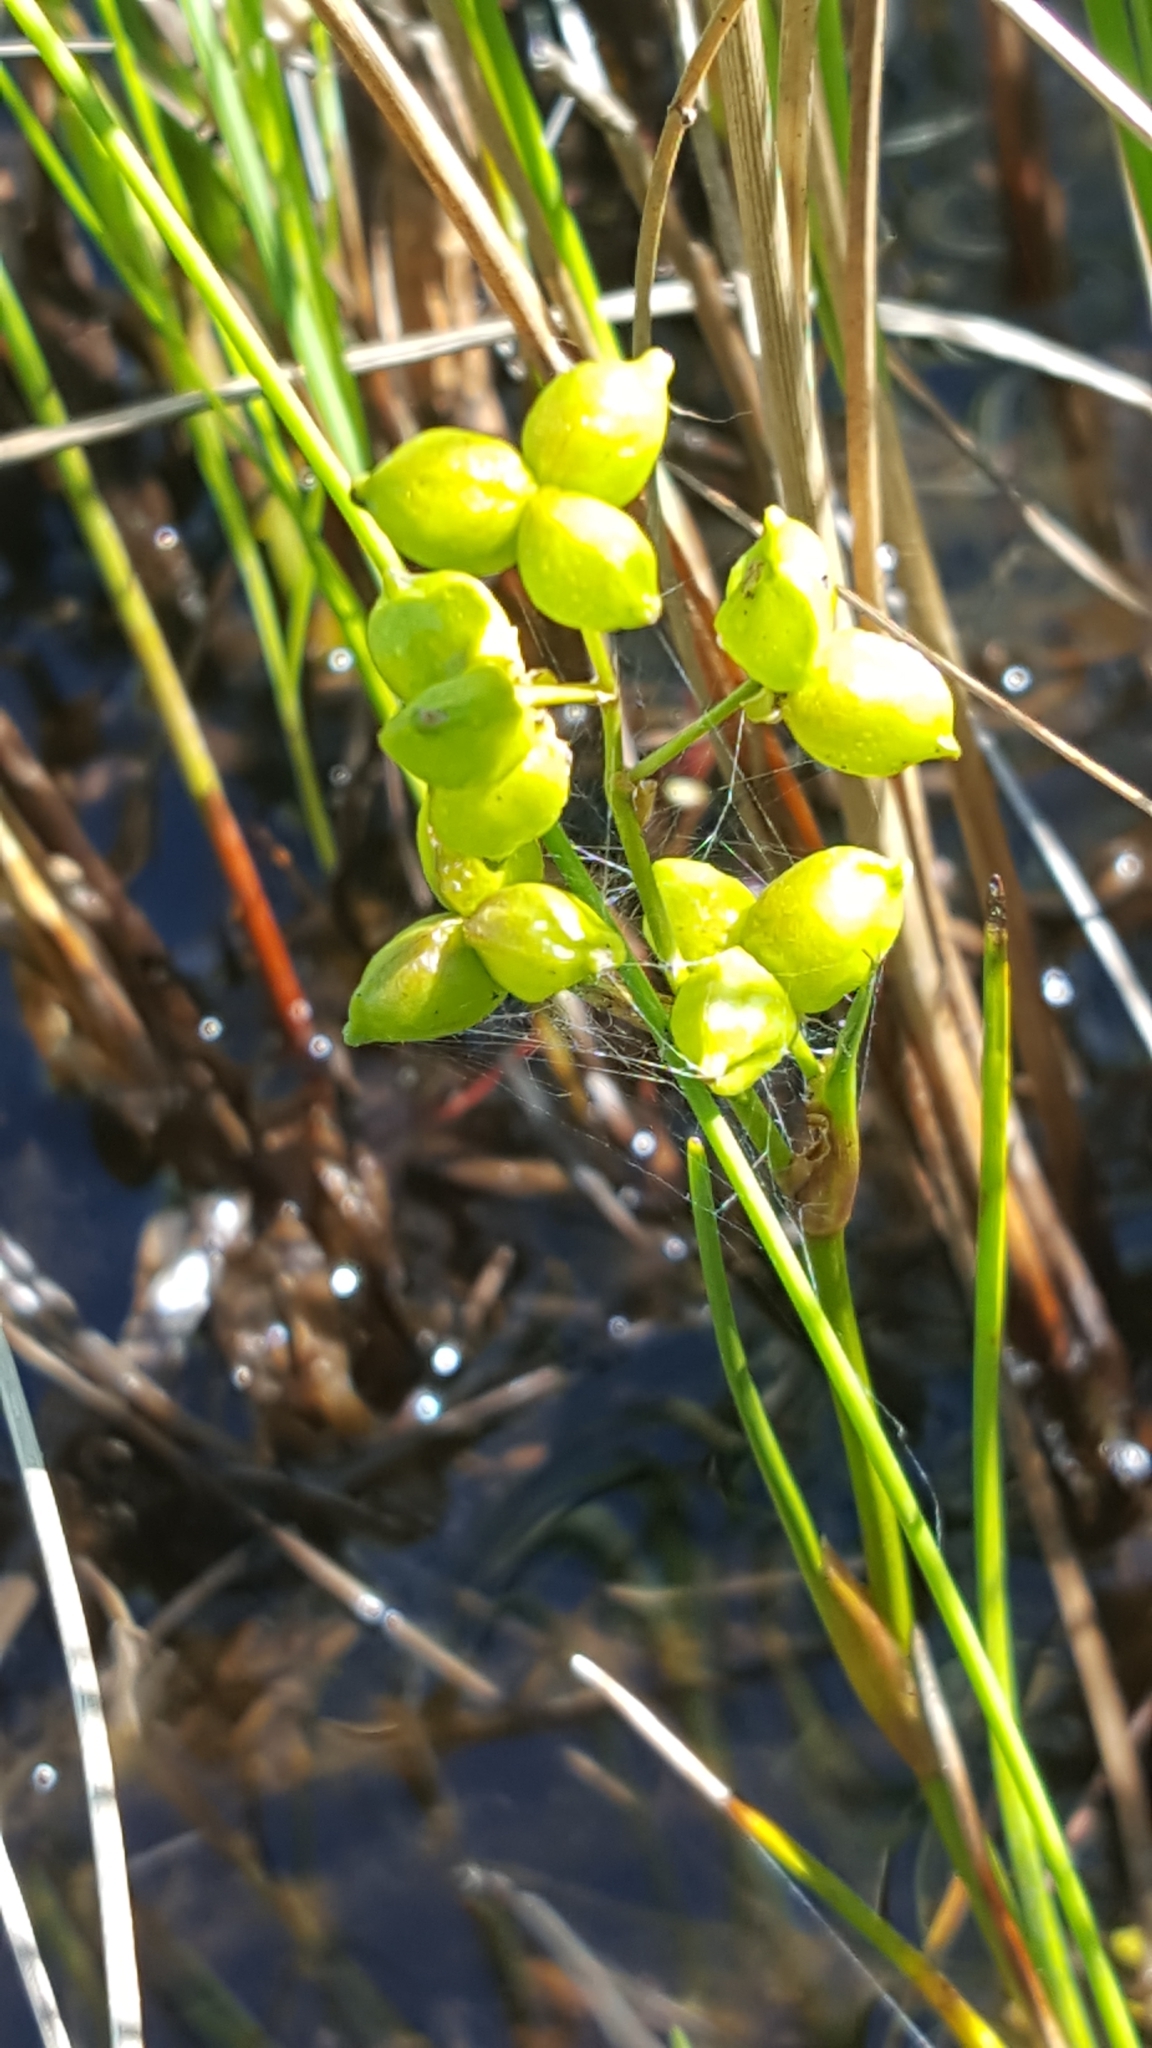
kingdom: Plantae
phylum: Tracheophyta
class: Liliopsida
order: Alismatales
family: Scheuchzeriaceae
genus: Scheuchzeria
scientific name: Scheuchzeria palustris
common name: Rannoch-rush
